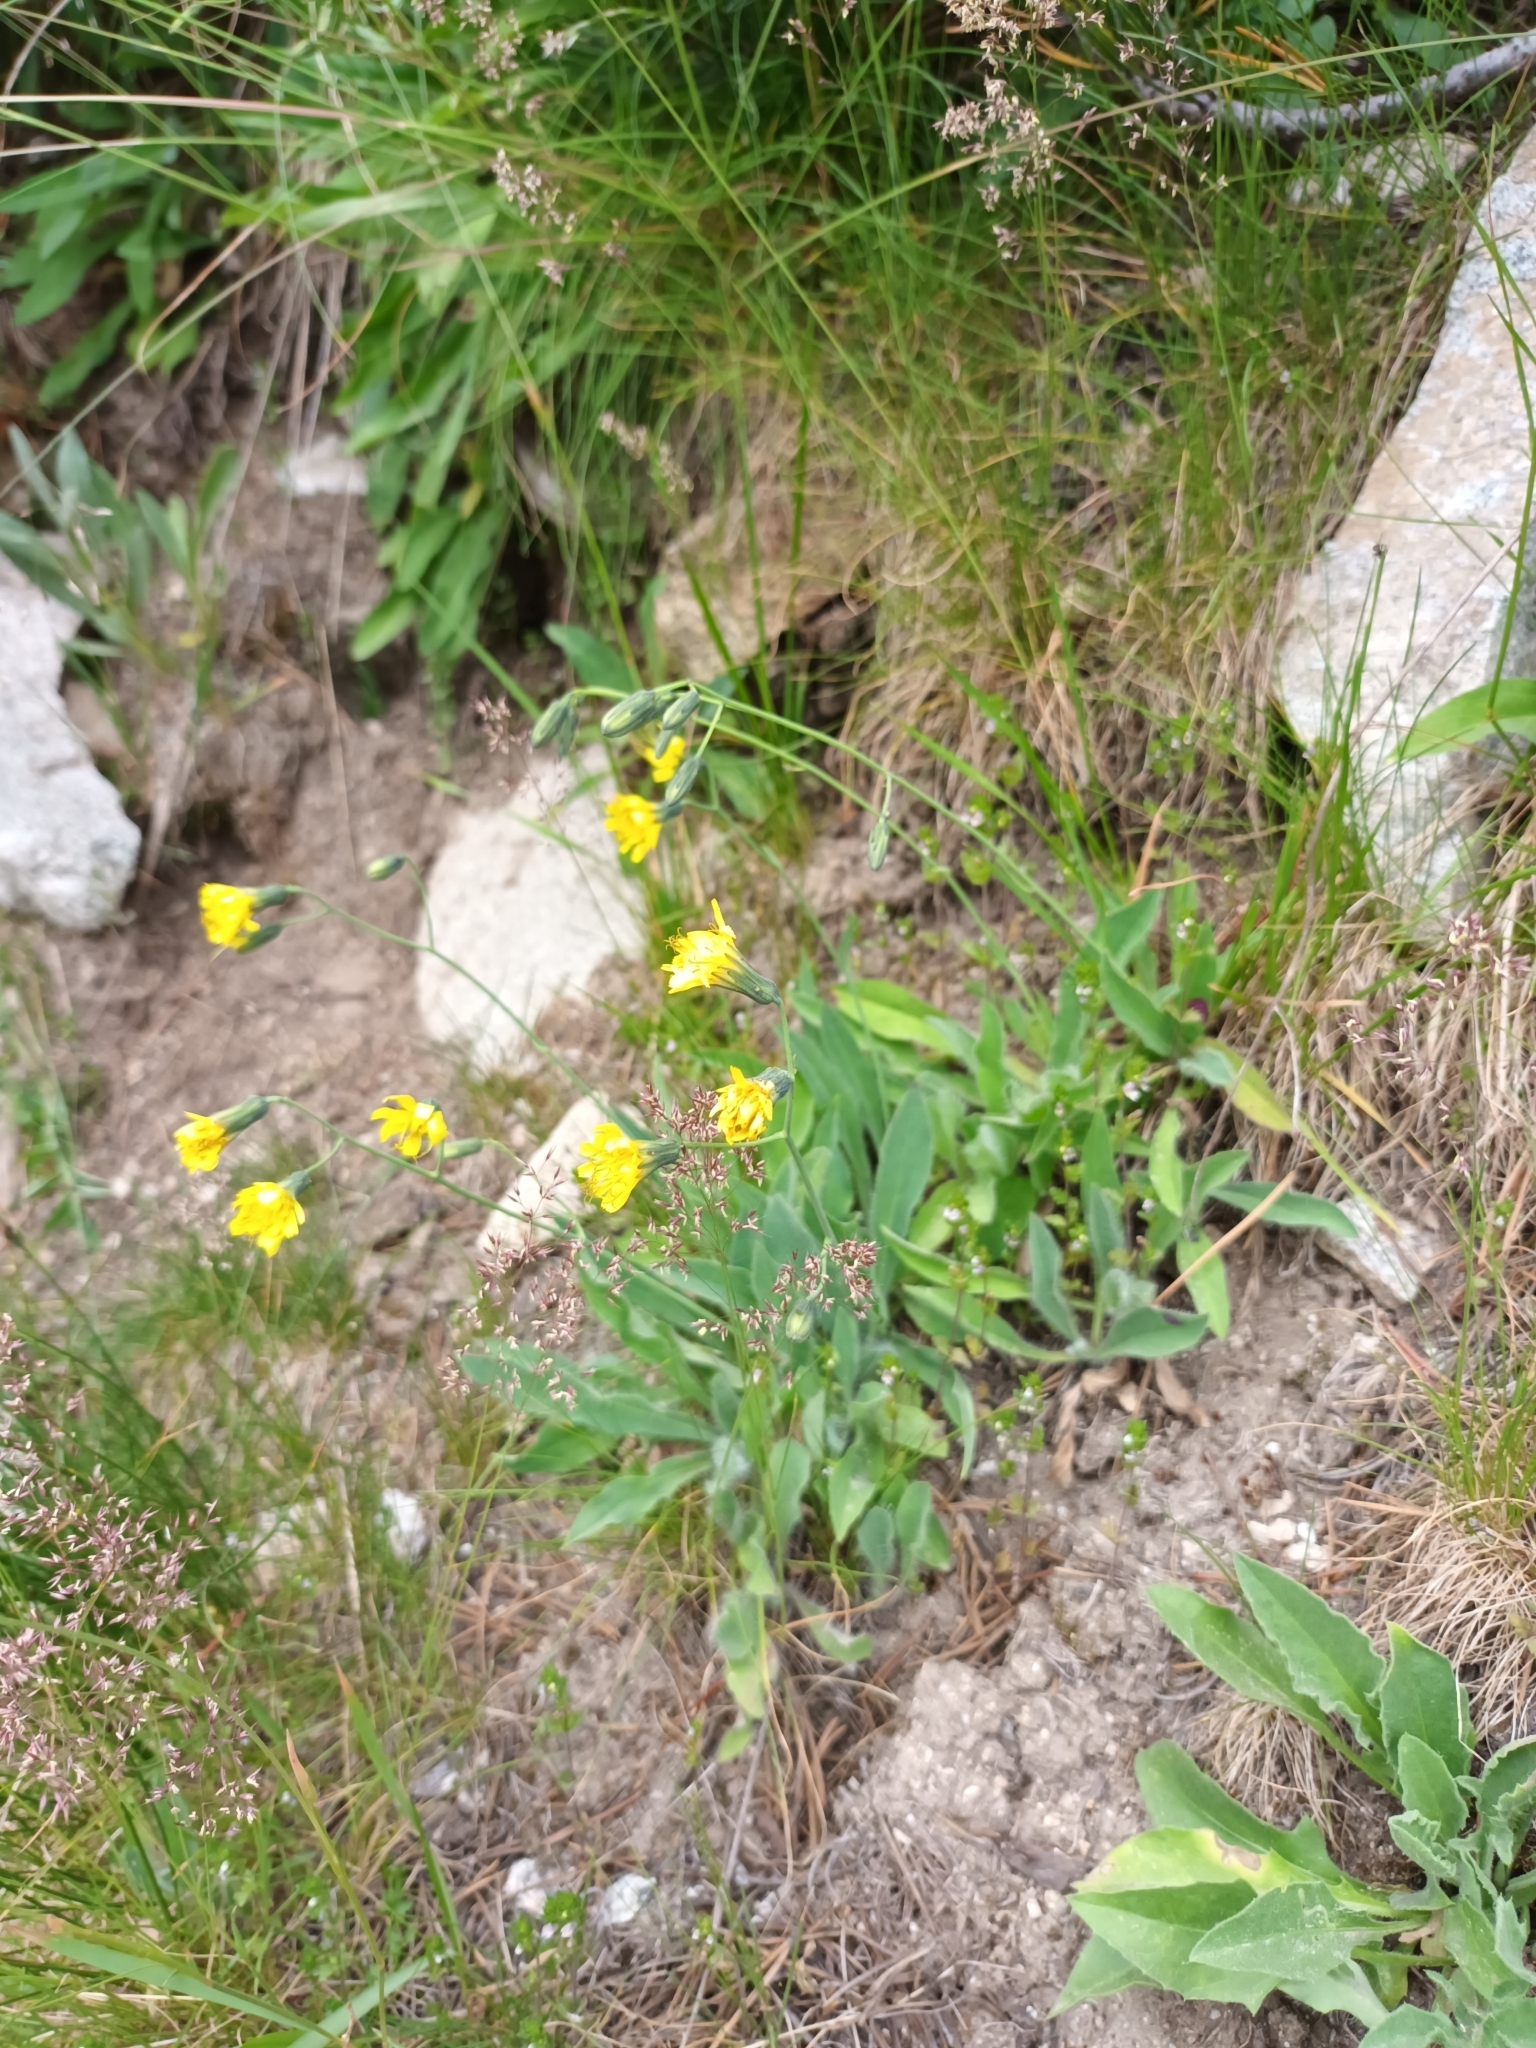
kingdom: Plantae
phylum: Tracheophyta
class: Magnoliopsida
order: Asterales
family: Asteraceae
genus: Hieracium
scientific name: Hieracium sparsum
